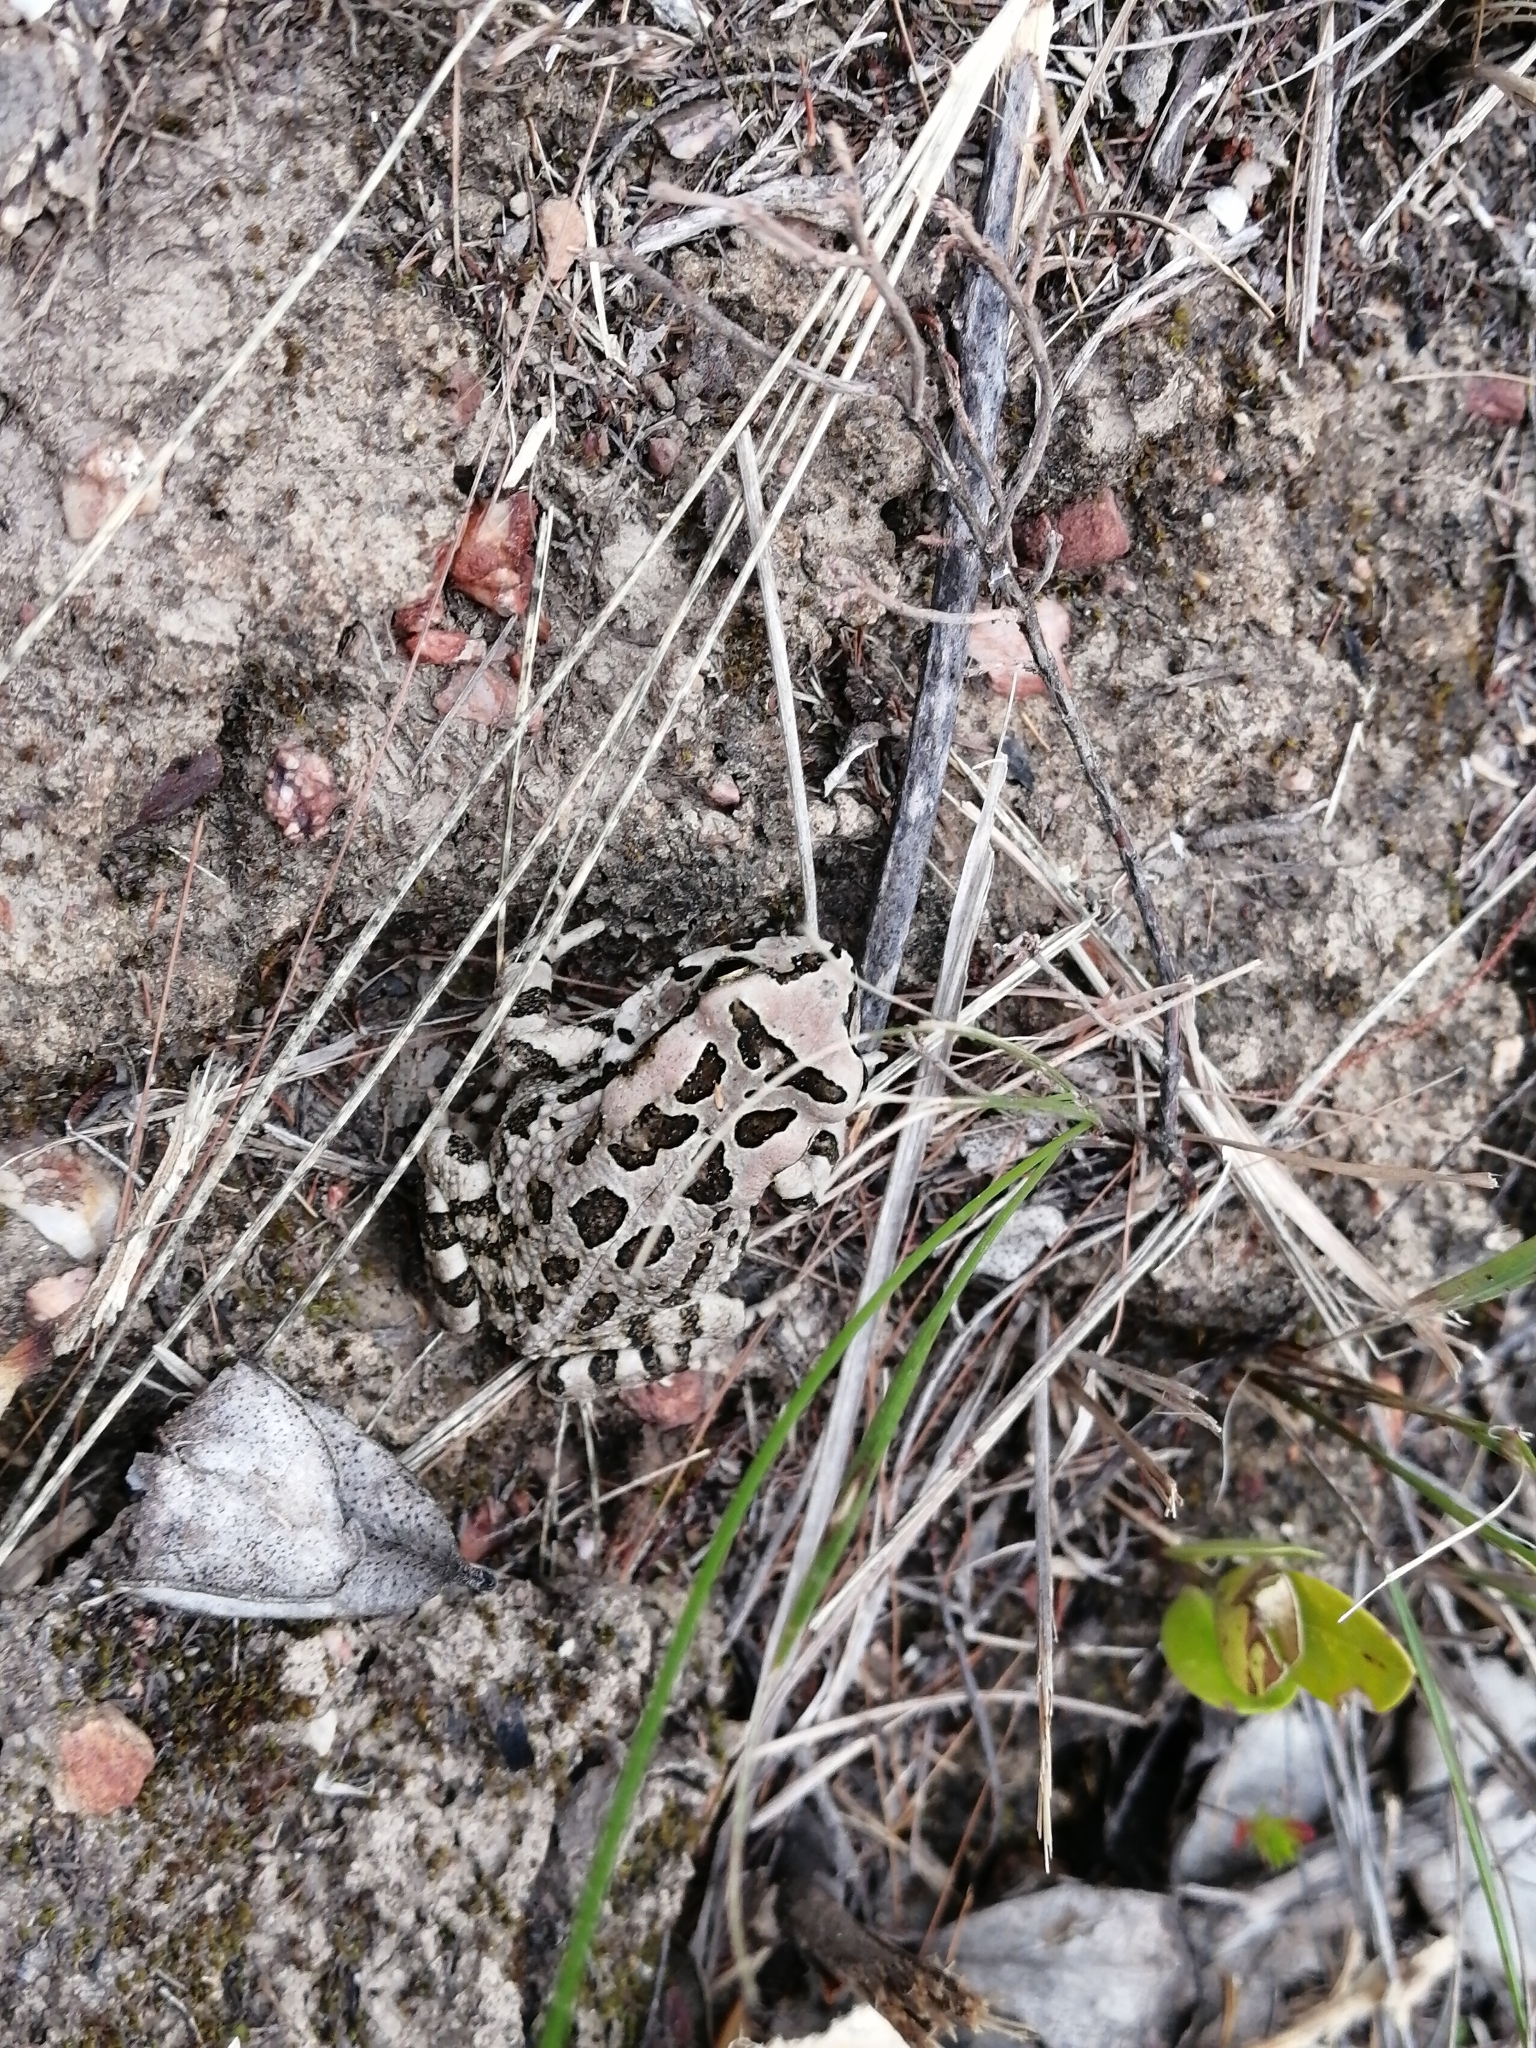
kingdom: Animalia
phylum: Chordata
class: Amphibia
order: Anura
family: Bufonidae
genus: Sclerophrys
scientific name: Sclerophrys capensis
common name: Ranger’s toad
